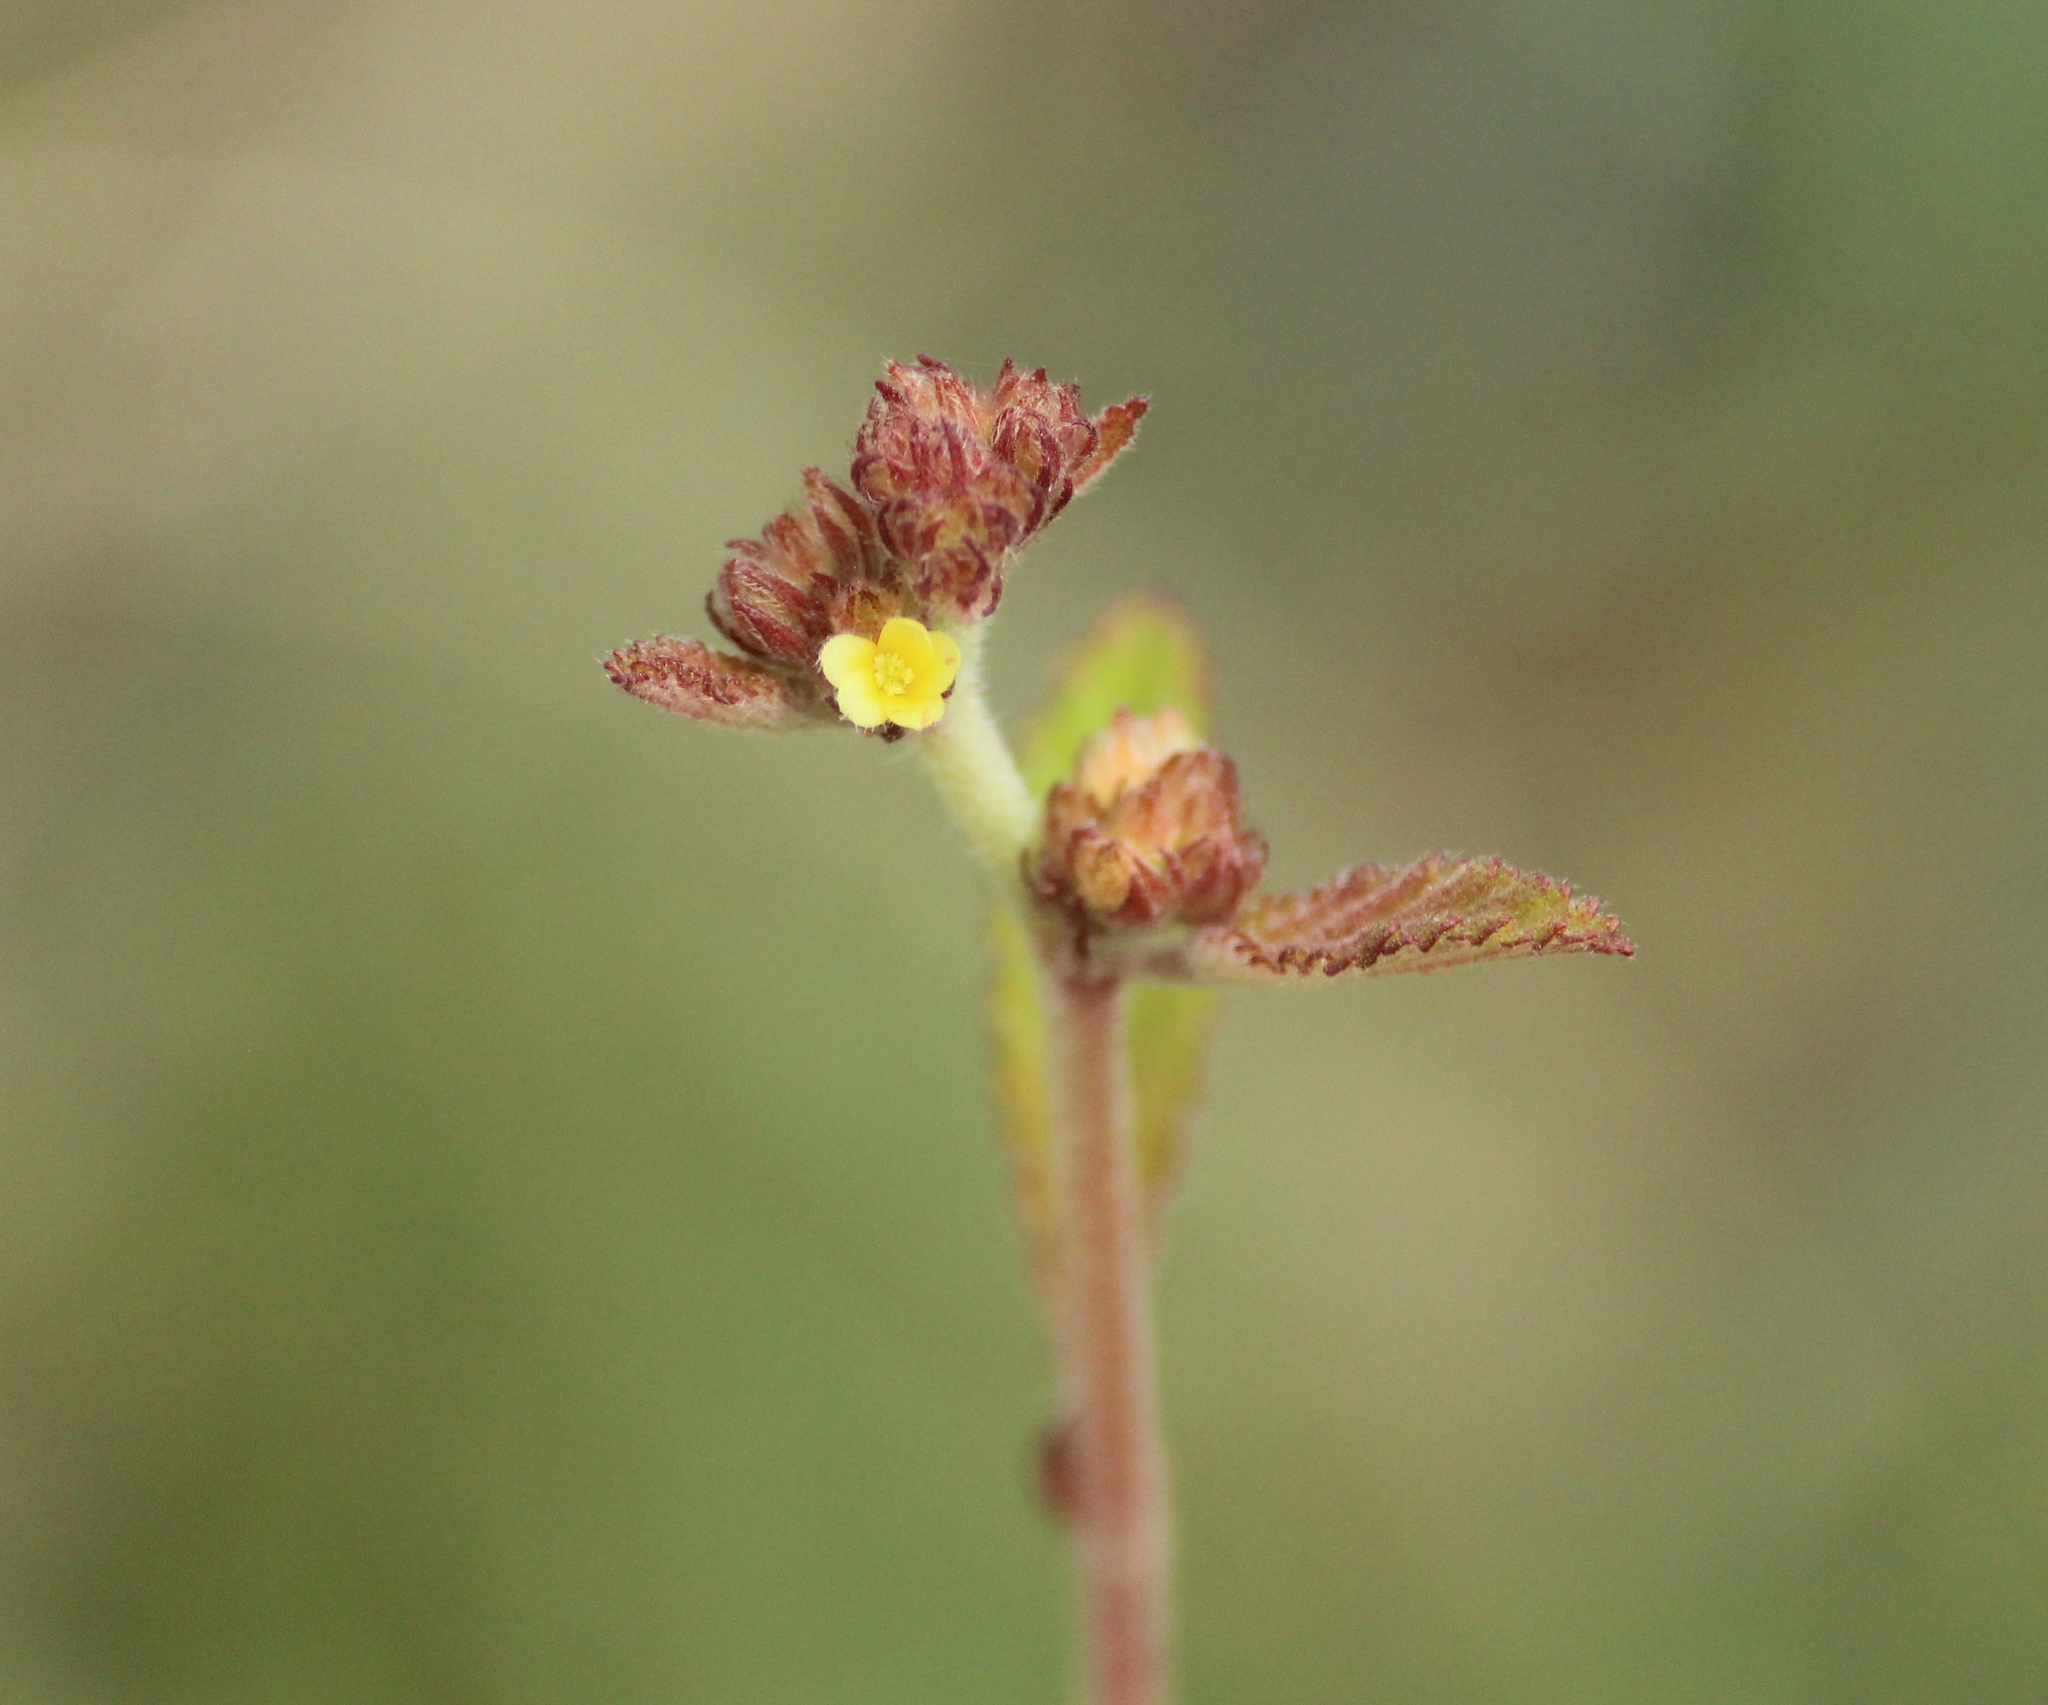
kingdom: Plantae
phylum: Tracheophyta
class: Magnoliopsida
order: Malvales
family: Malvaceae
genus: Waltheria
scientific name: Waltheria indica
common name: Leather-coat
